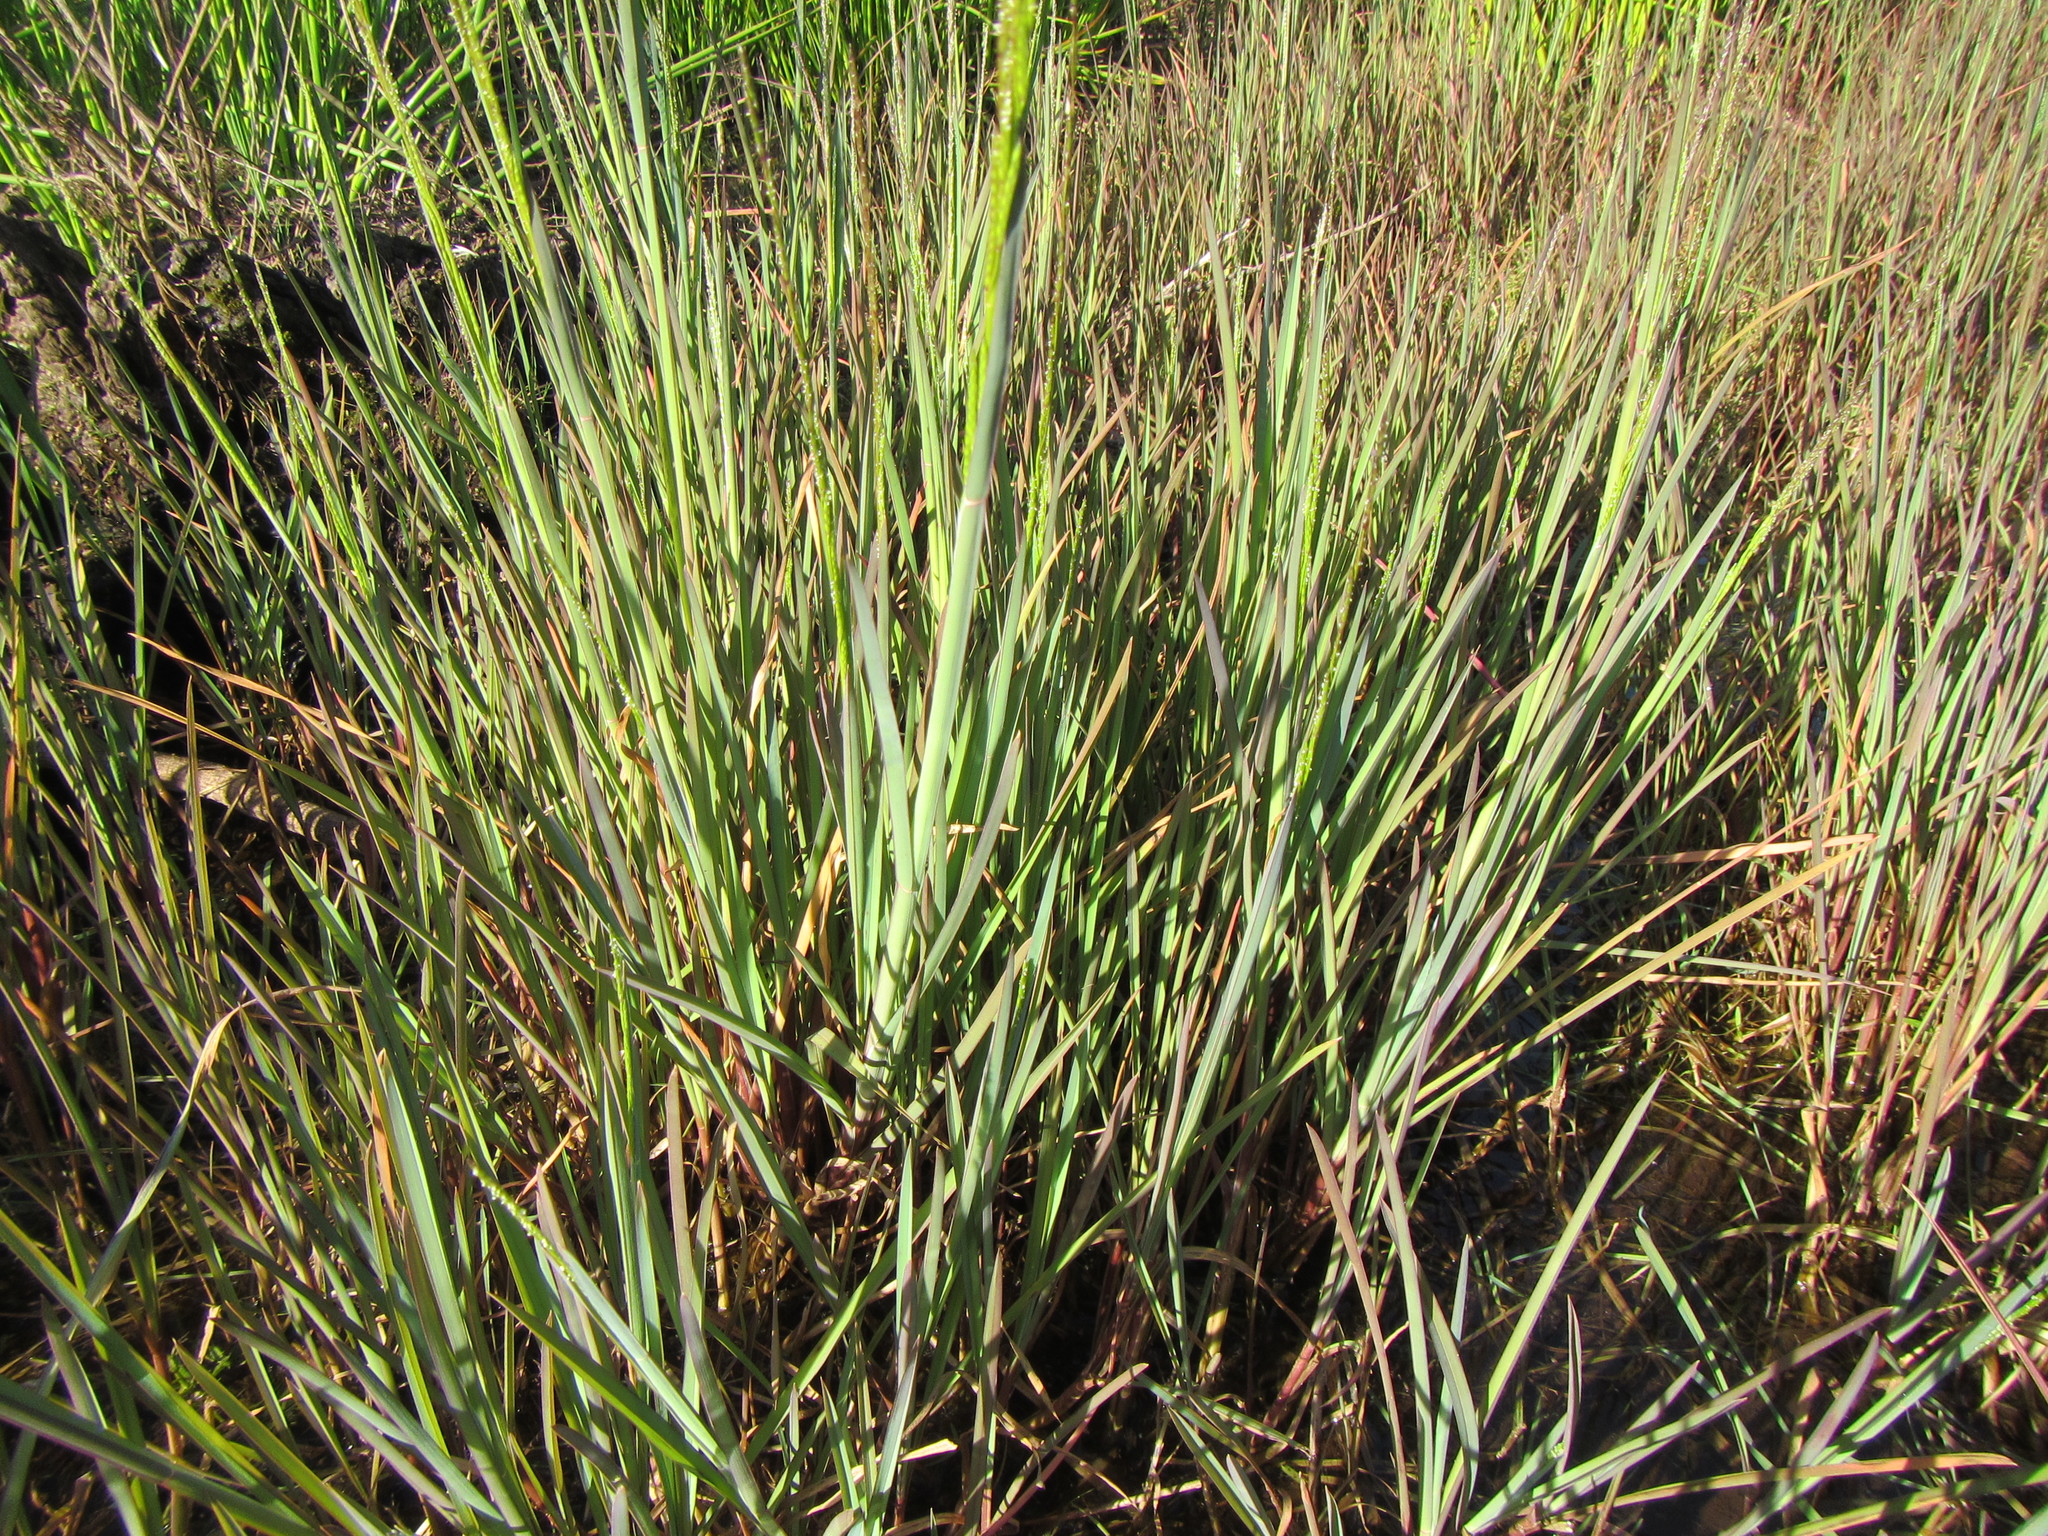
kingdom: Plantae
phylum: Tracheophyta
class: Liliopsida
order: Poales
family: Poaceae
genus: Hemarthria
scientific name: Hemarthria altissima
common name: African jointgrass
